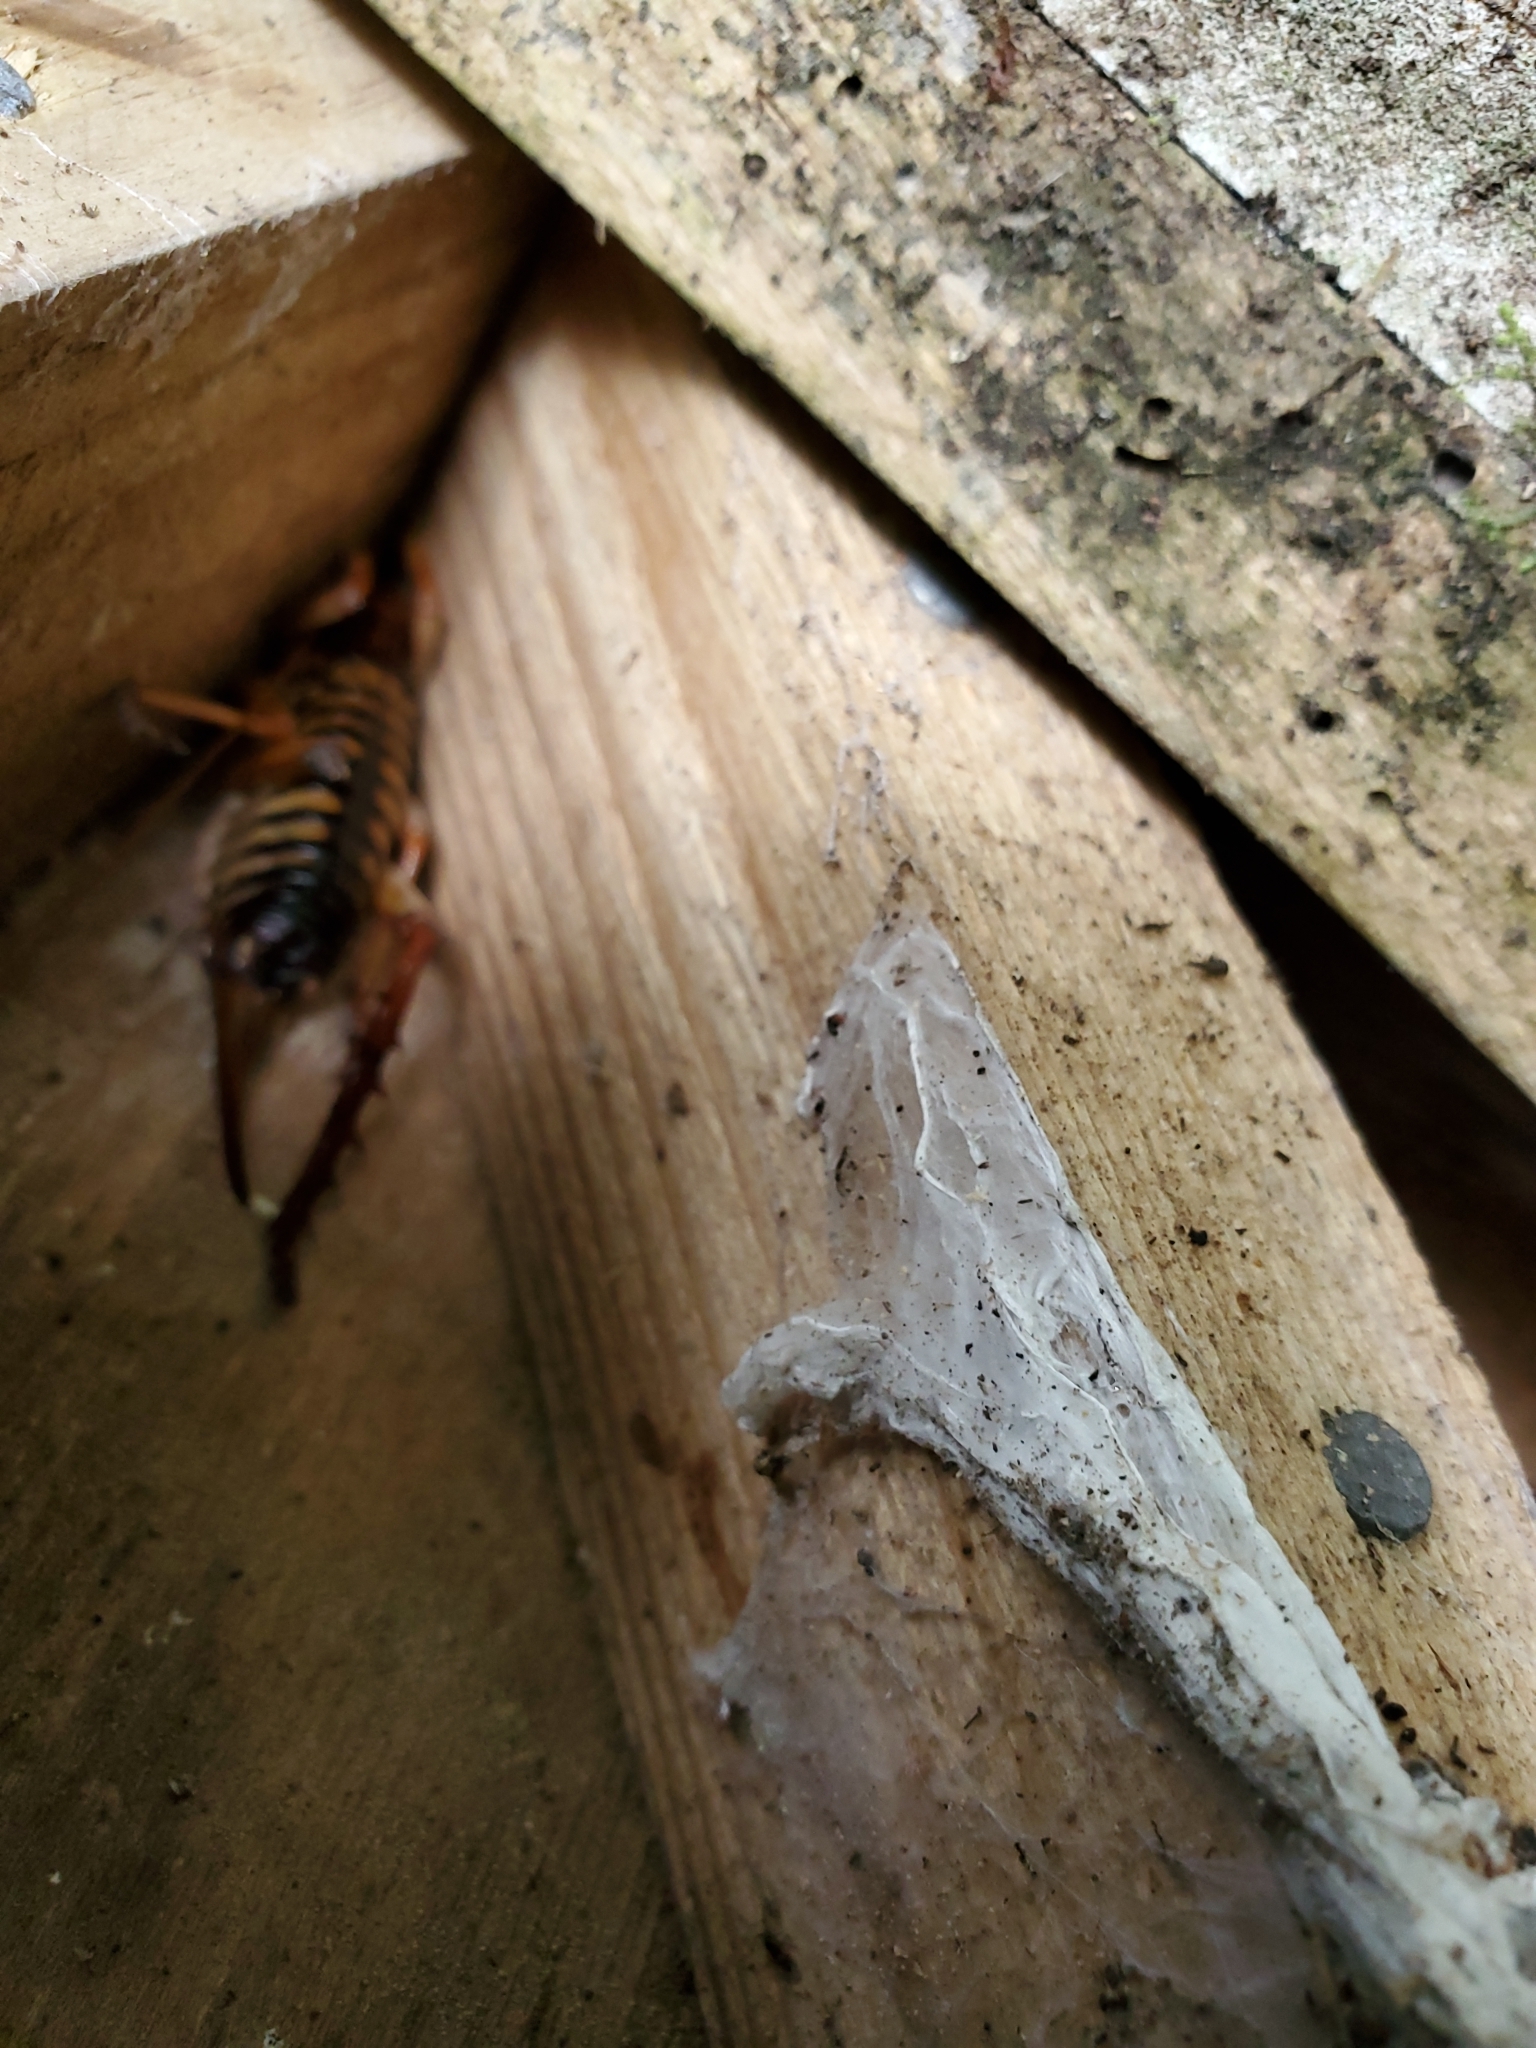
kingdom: Animalia
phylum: Arthropoda
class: Insecta
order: Orthoptera
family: Anostostomatidae
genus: Hemideina
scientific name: Hemideina crassidens
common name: Wellington tree weta
